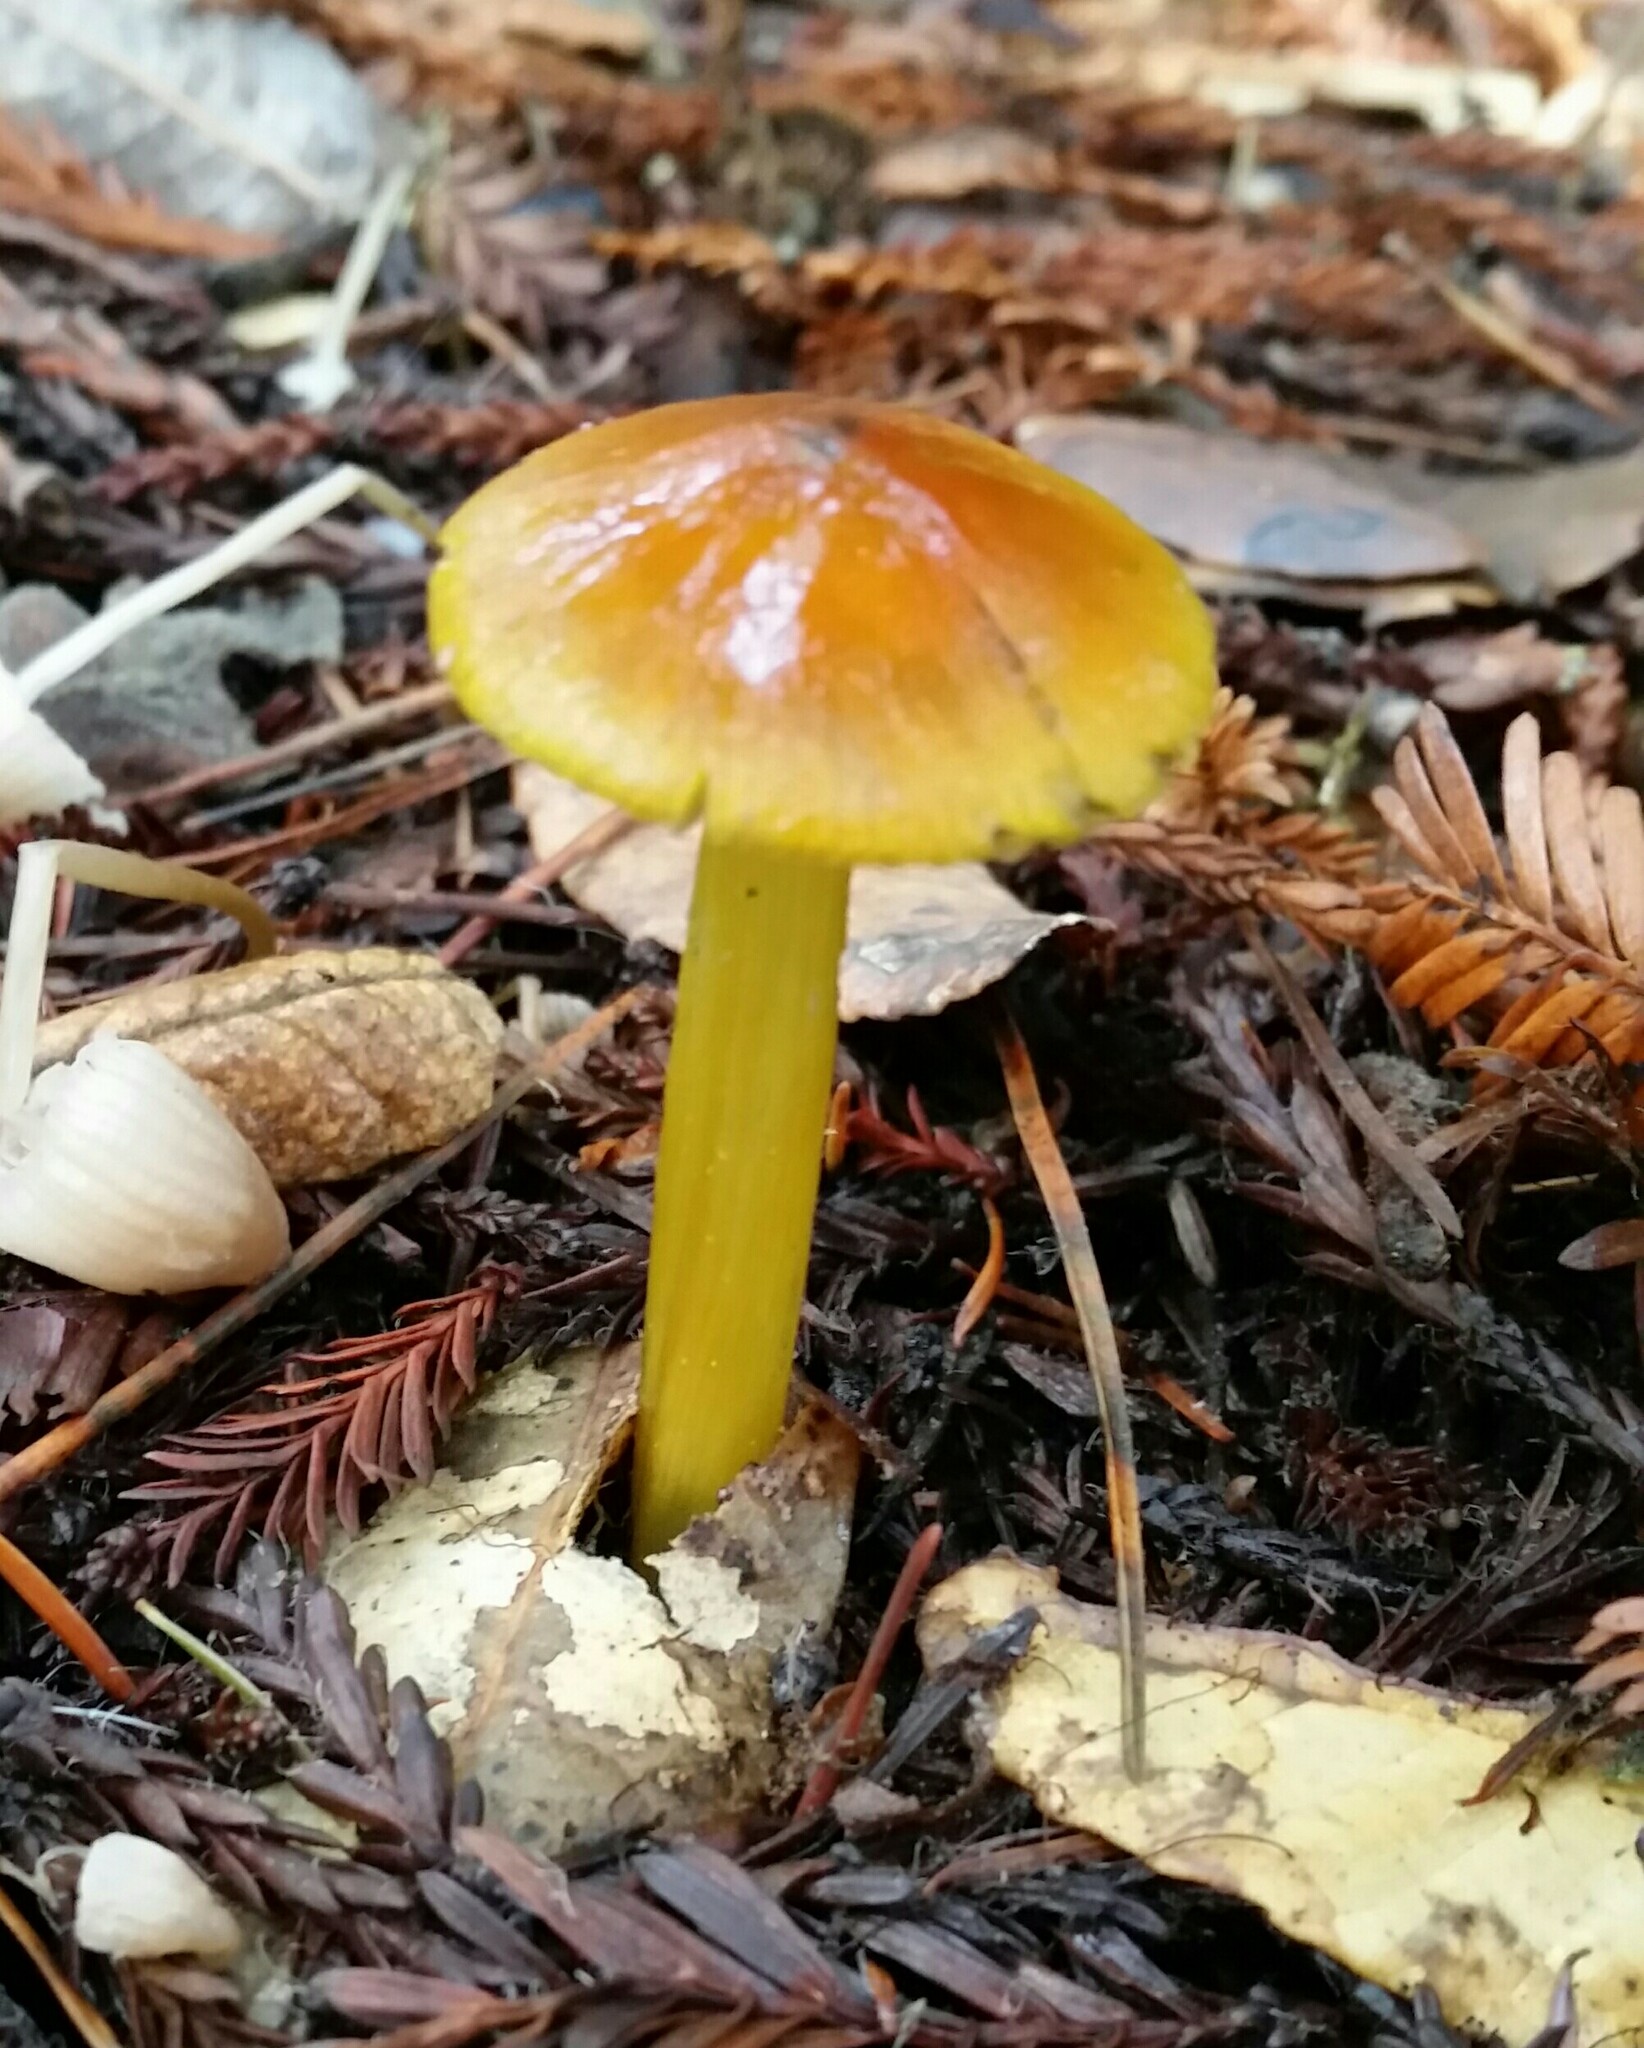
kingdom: Fungi
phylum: Basidiomycota
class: Agaricomycetes
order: Agaricales
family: Hygrophoraceae
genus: Hygrocybe
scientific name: Hygrocybe singeri
